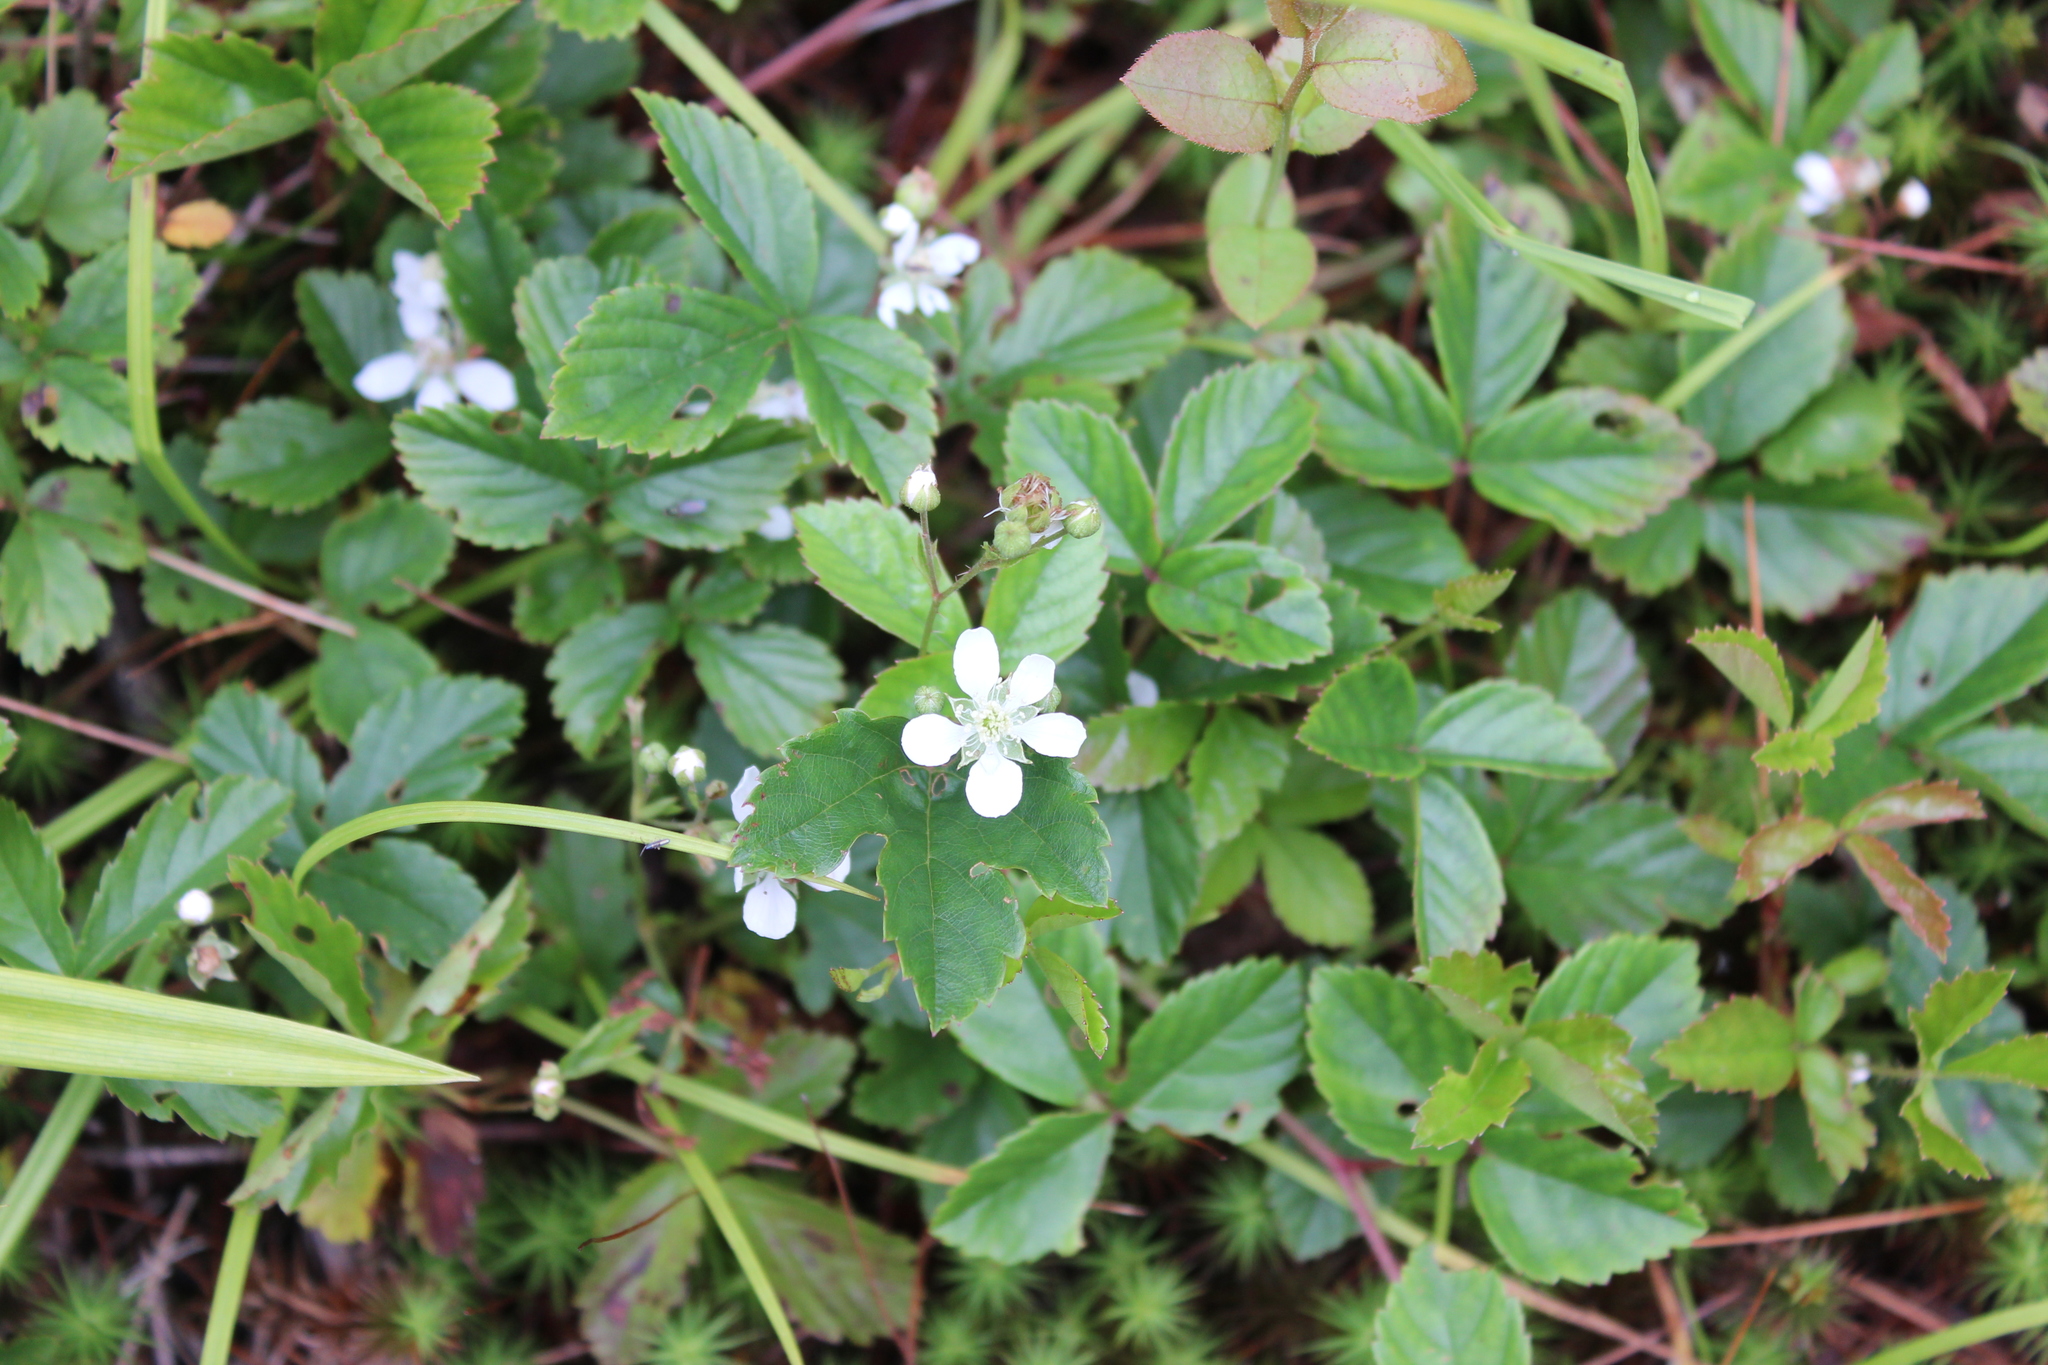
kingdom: Plantae
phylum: Tracheophyta
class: Magnoliopsida
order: Rosales
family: Rosaceae
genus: Rubus
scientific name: Rubus hispidus
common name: Running blackberry
